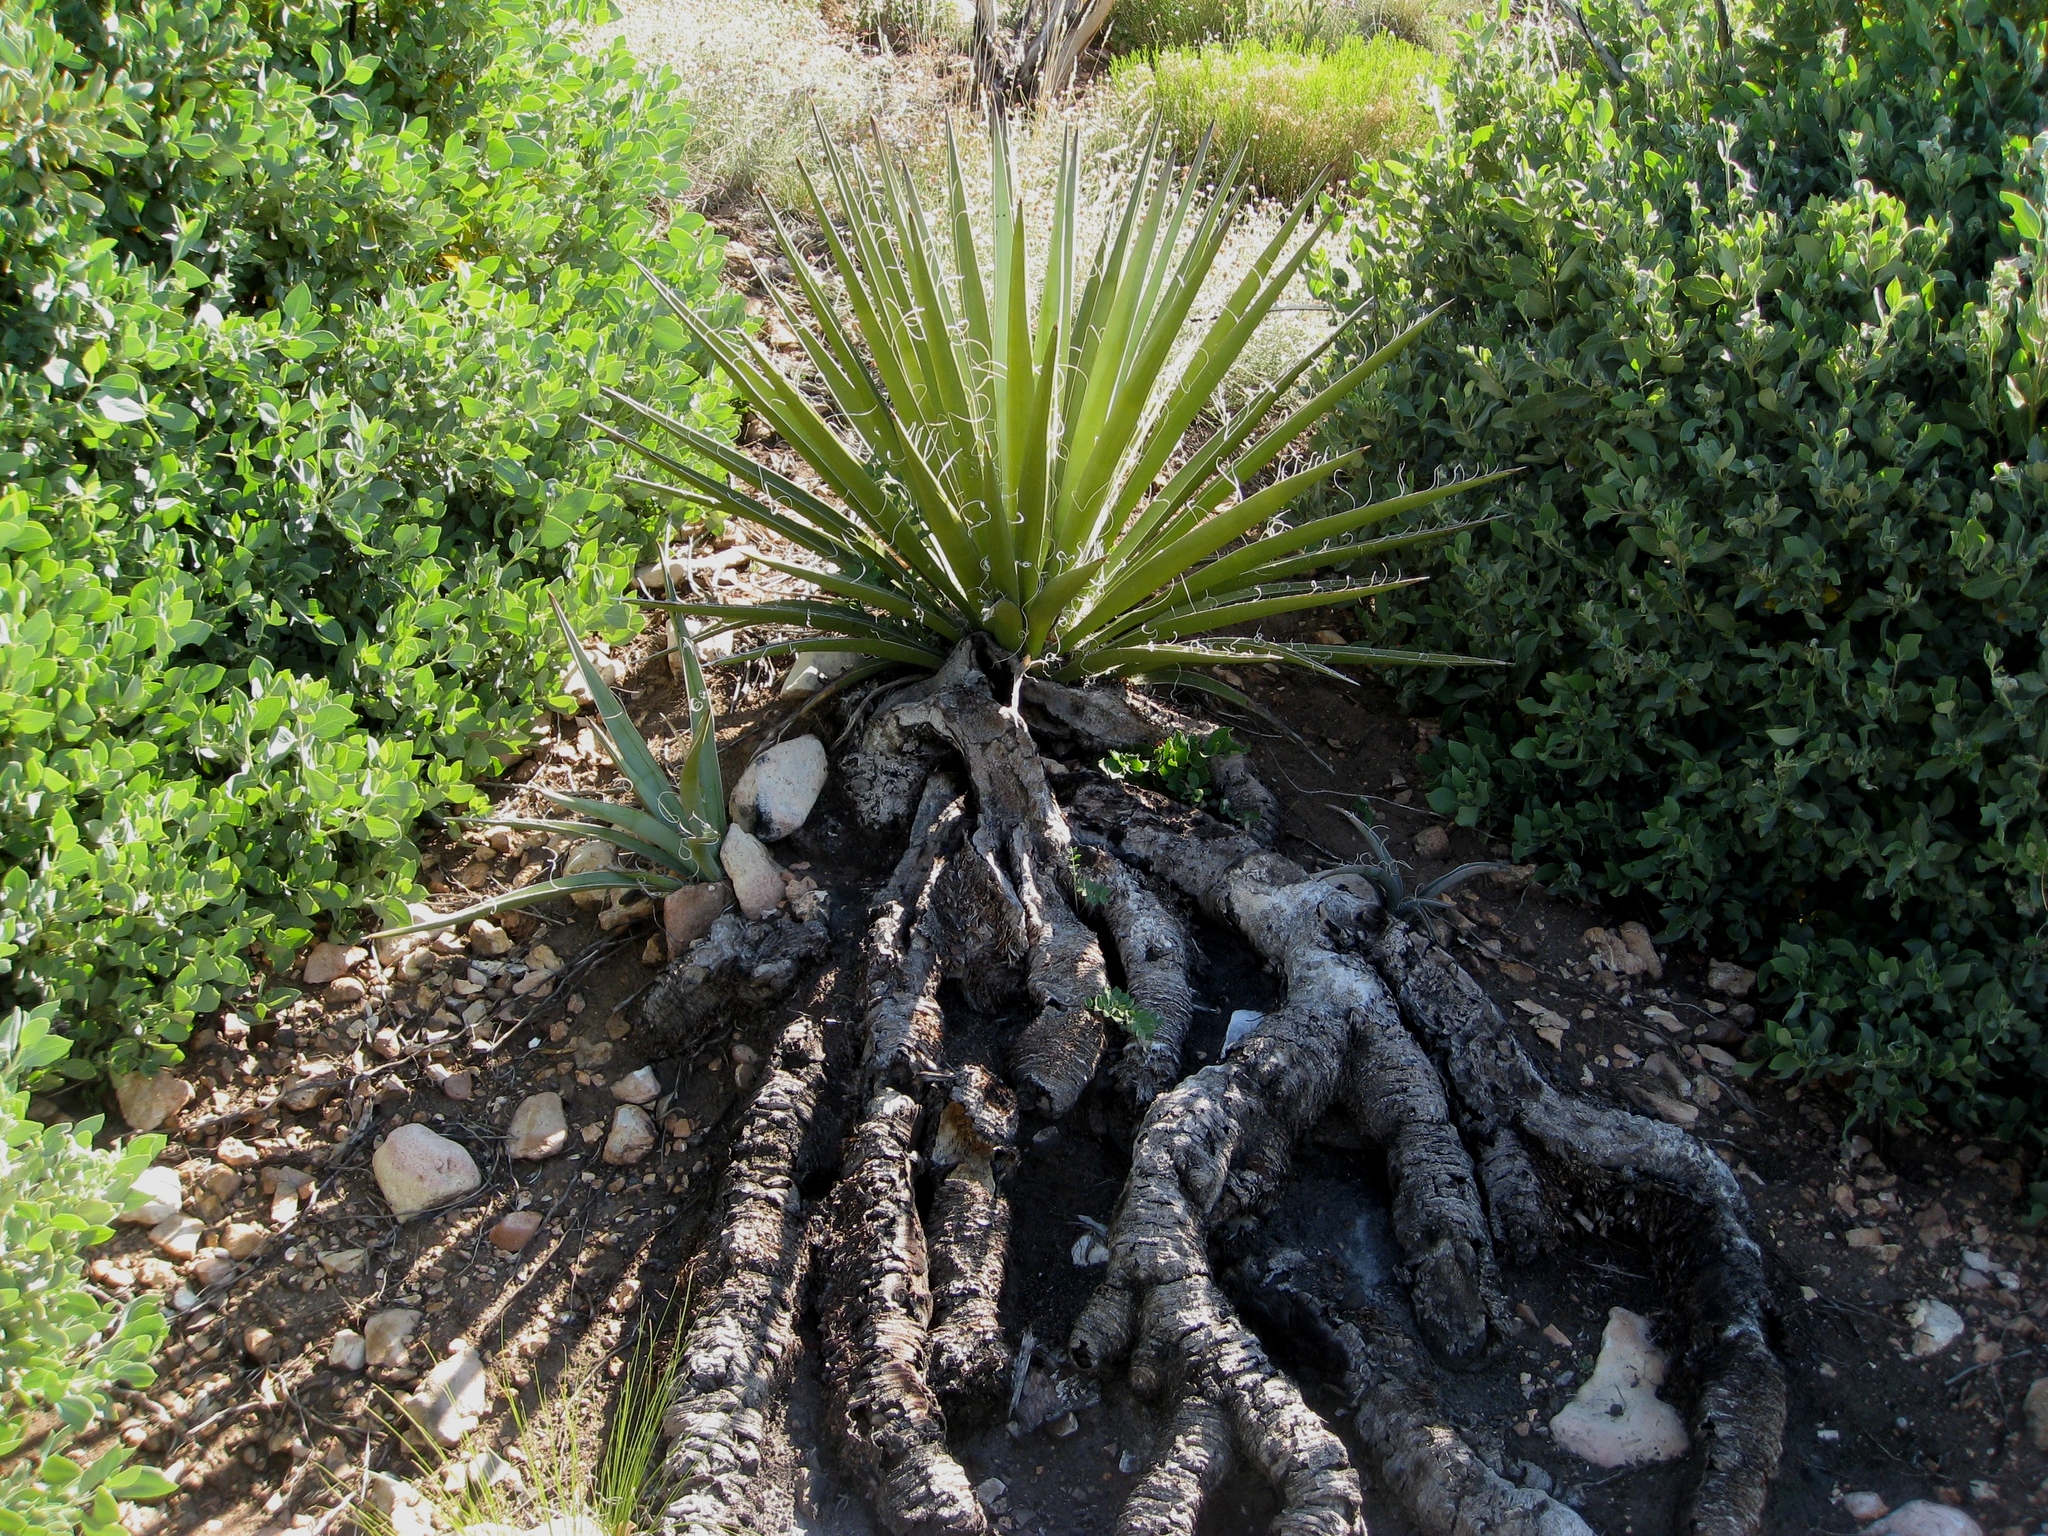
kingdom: Plantae
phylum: Tracheophyta
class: Liliopsida
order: Asparagales
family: Asparagaceae
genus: Yucca
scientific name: Yucca baccata
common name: Banana yucca
